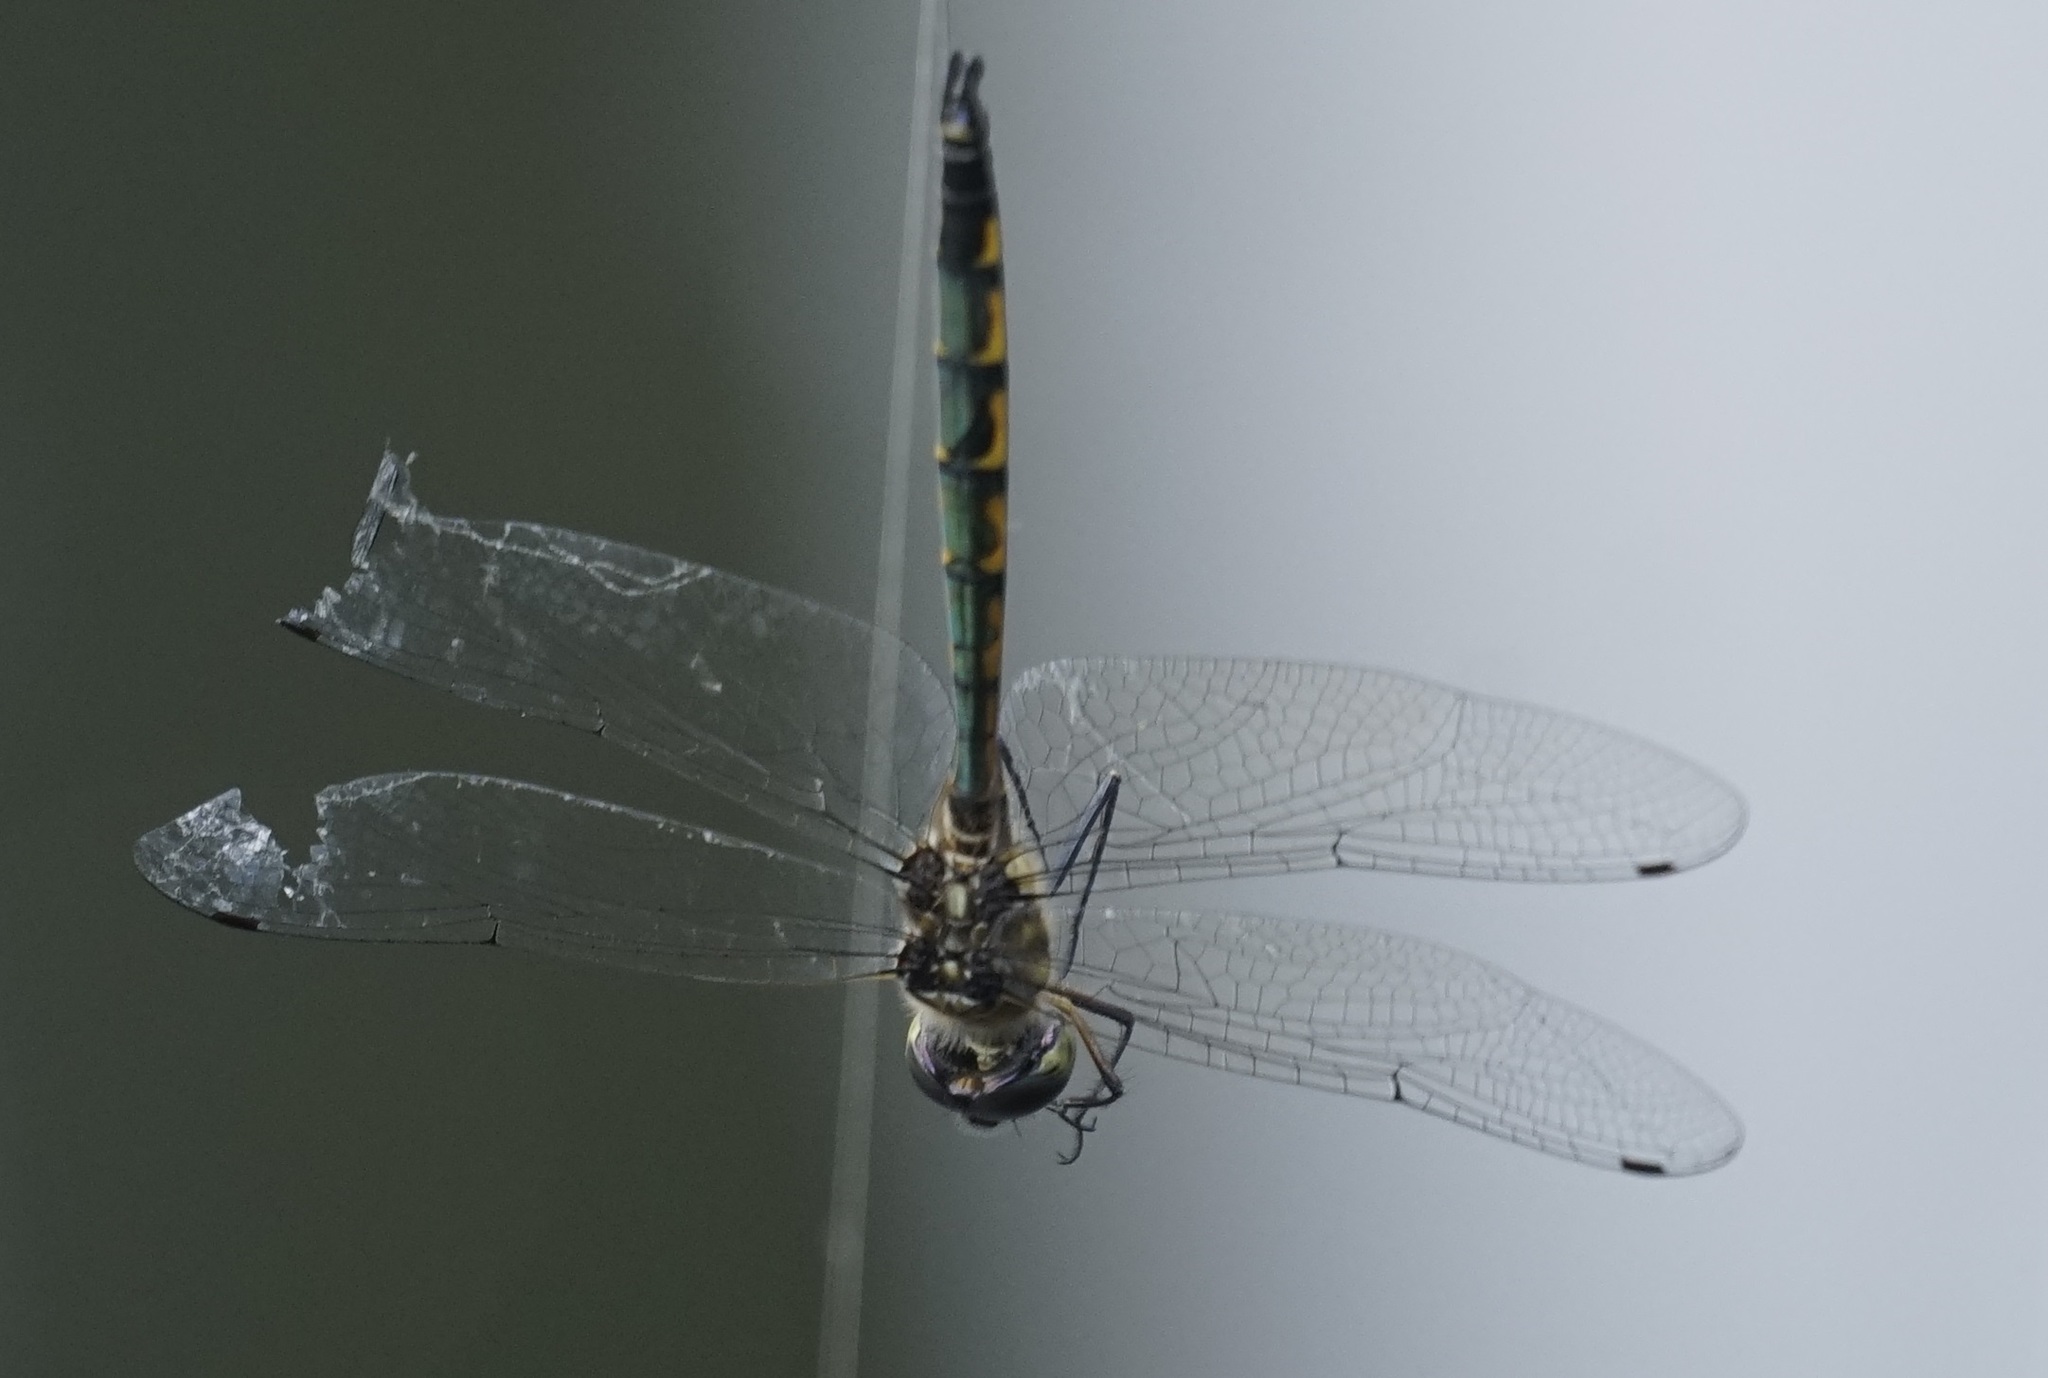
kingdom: Animalia
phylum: Arthropoda
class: Insecta
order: Odonata
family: Corduliidae
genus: Hemicordulia
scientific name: Hemicordulia australiae
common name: Sentry dragonfly
